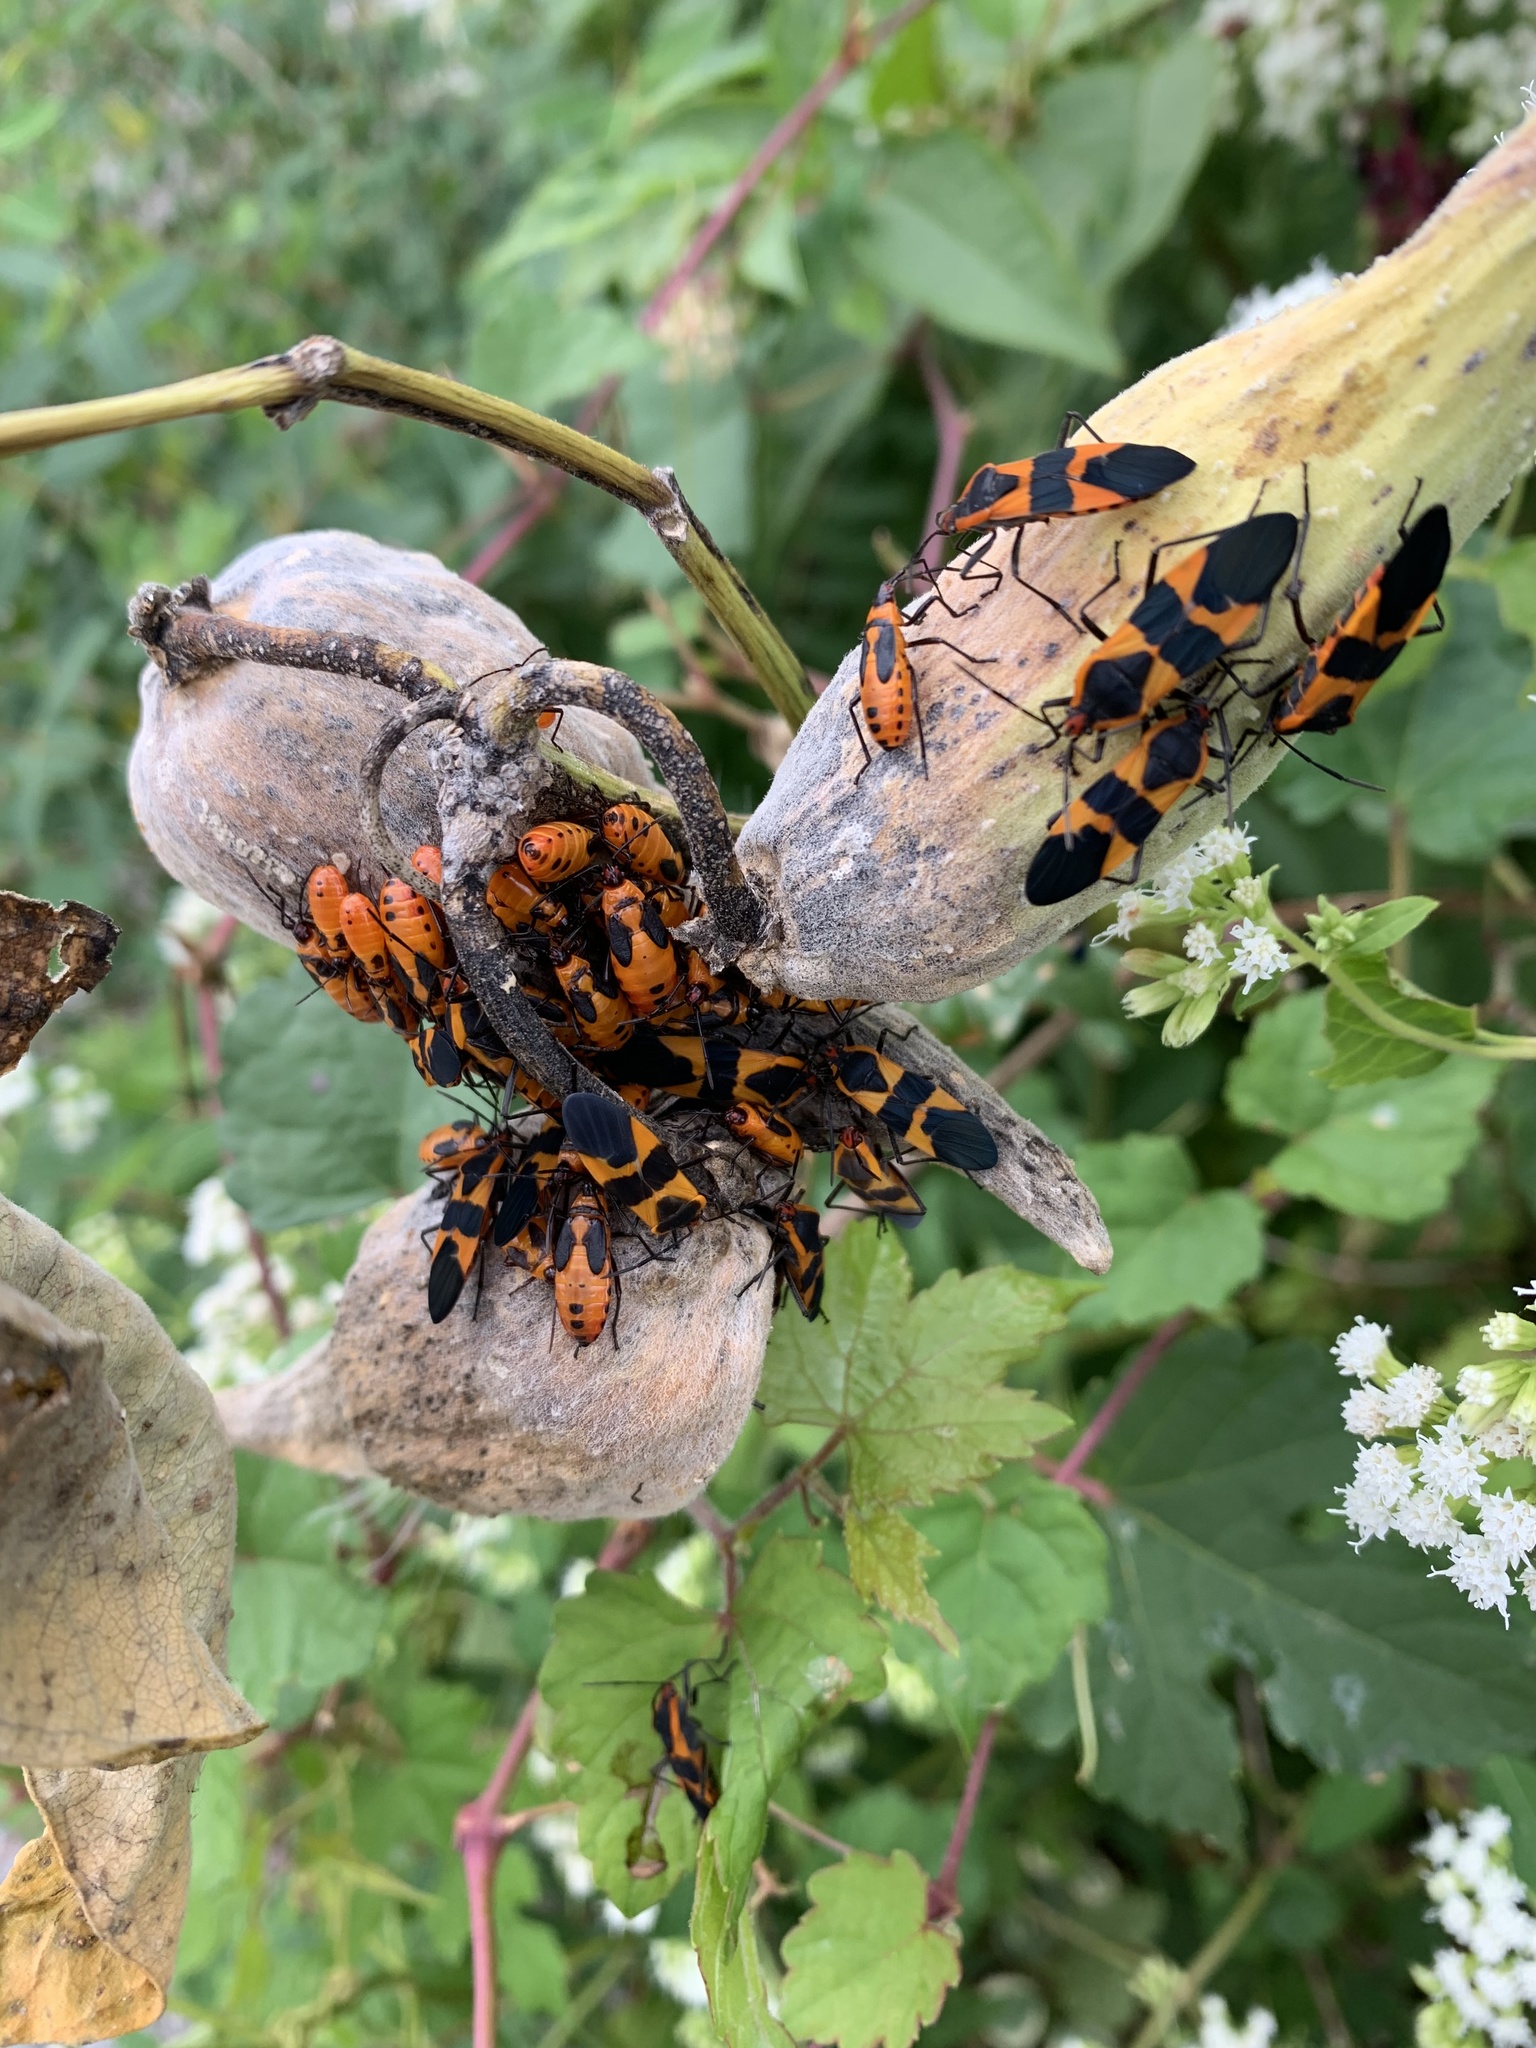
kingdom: Animalia
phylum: Arthropoda
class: Insecta
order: Hemiptera
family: Lygaeidae
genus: Oncopeltus
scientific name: Oncopeltus fasciatus
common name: Large milkweed bug
